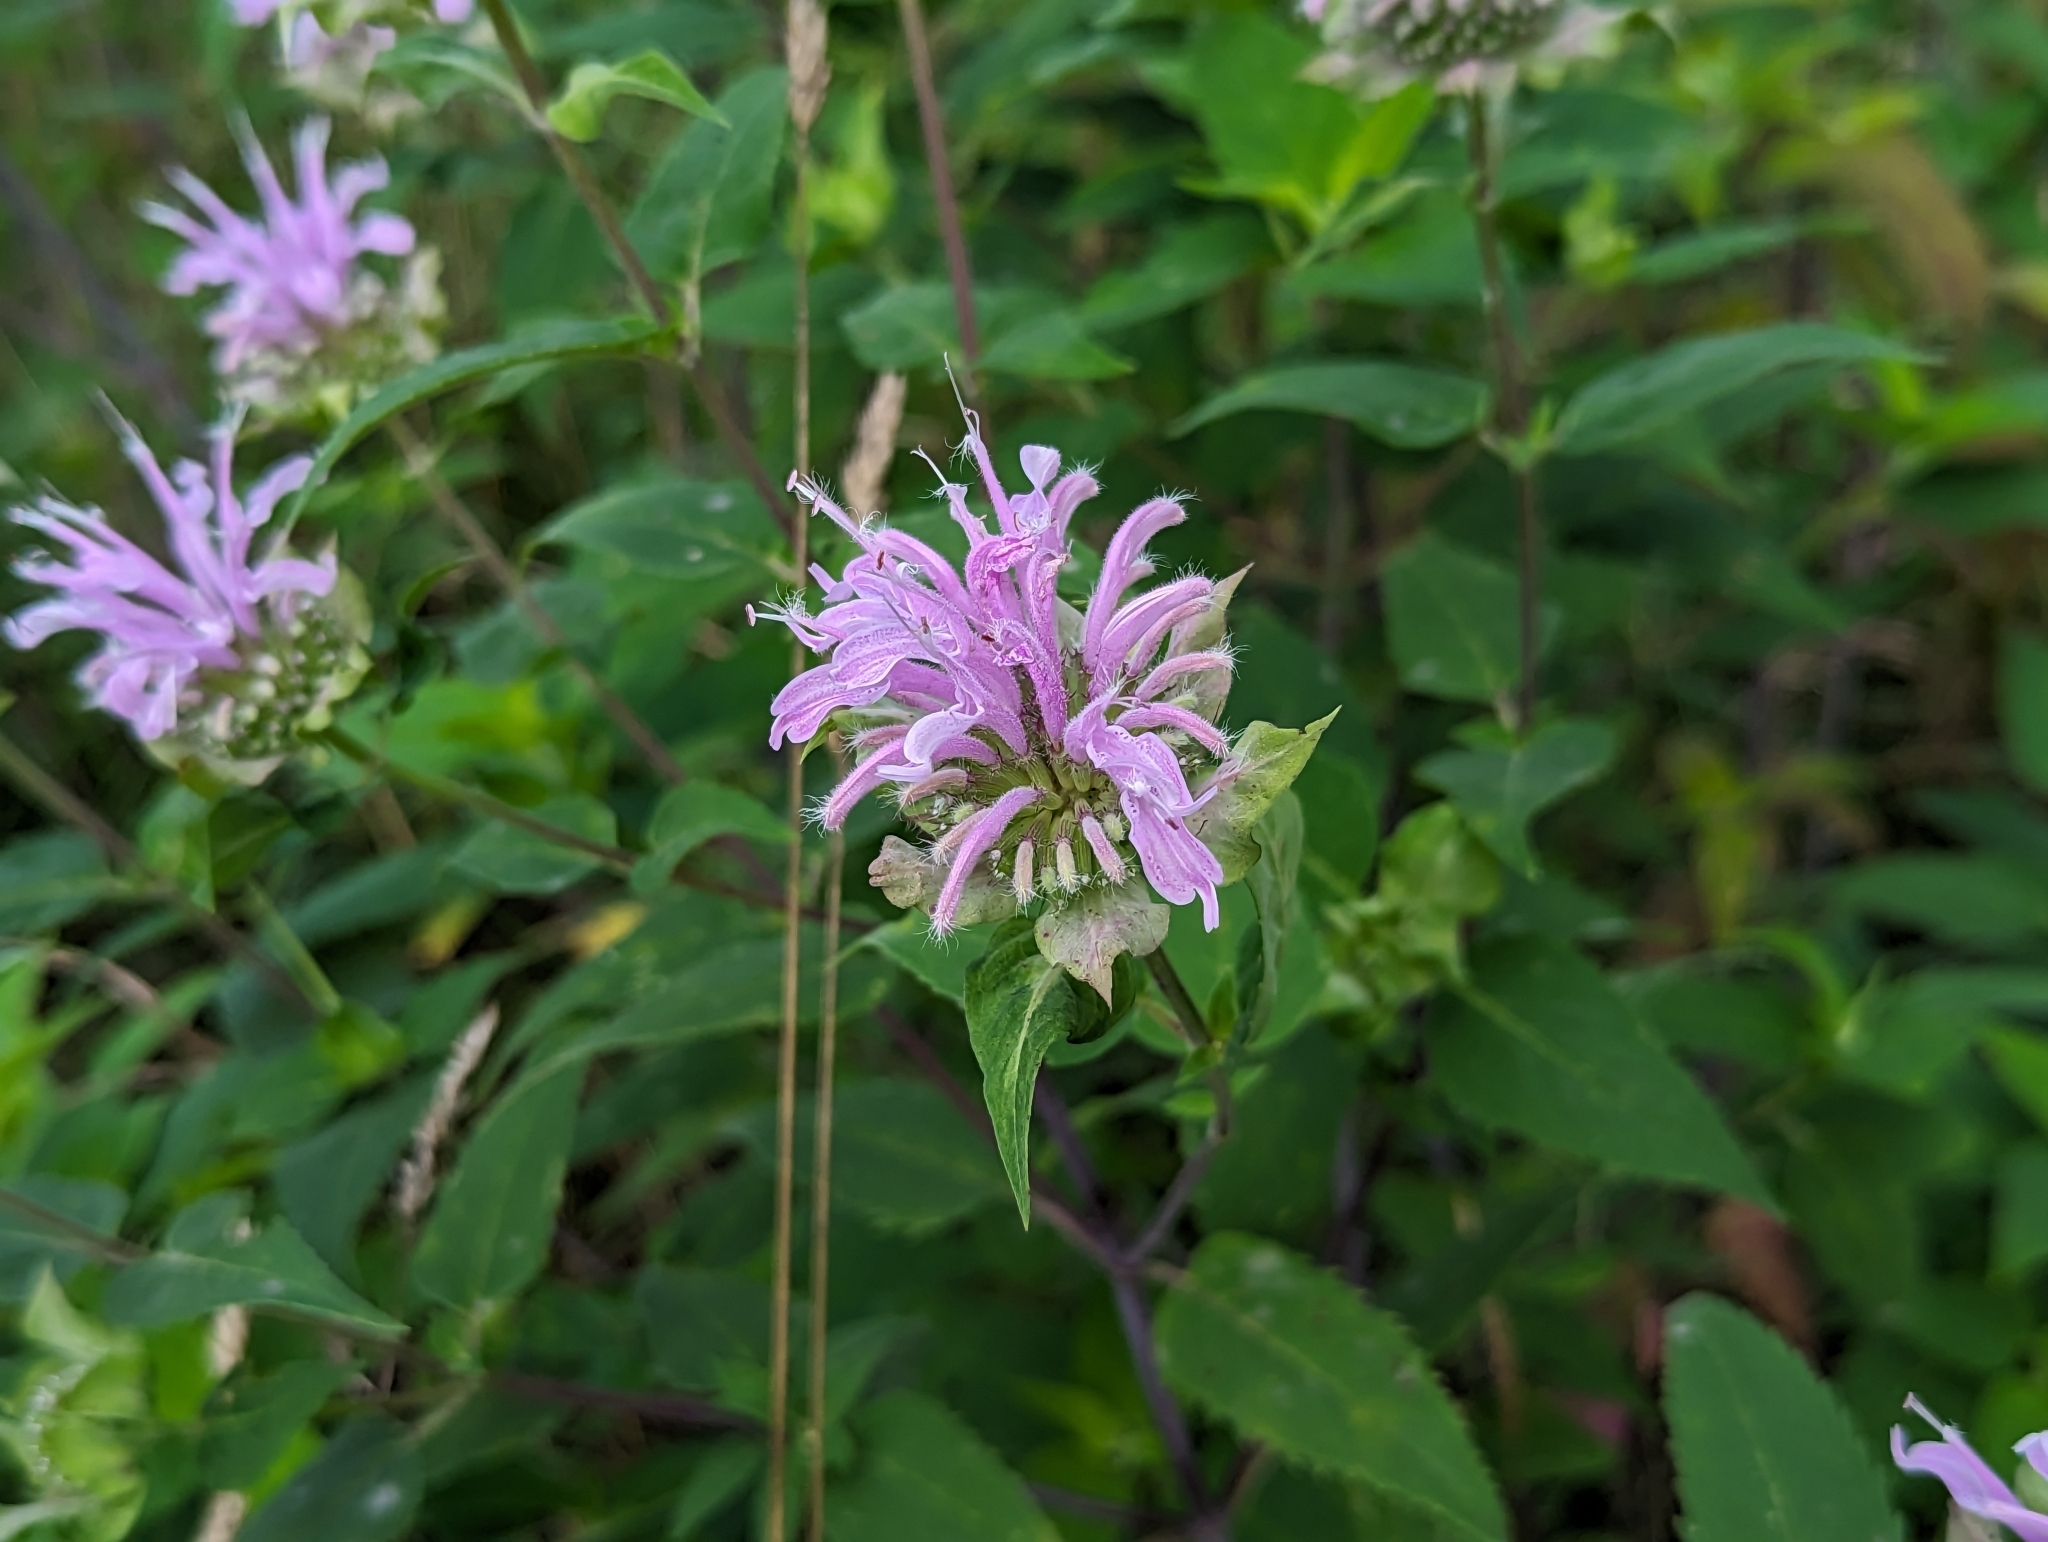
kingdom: Plantae
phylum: Tracheophyta
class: Magnoliopsida
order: Lamiales
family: Lamiaceae
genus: Monarda
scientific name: Monarda fistulosa
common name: Purple beebalm
